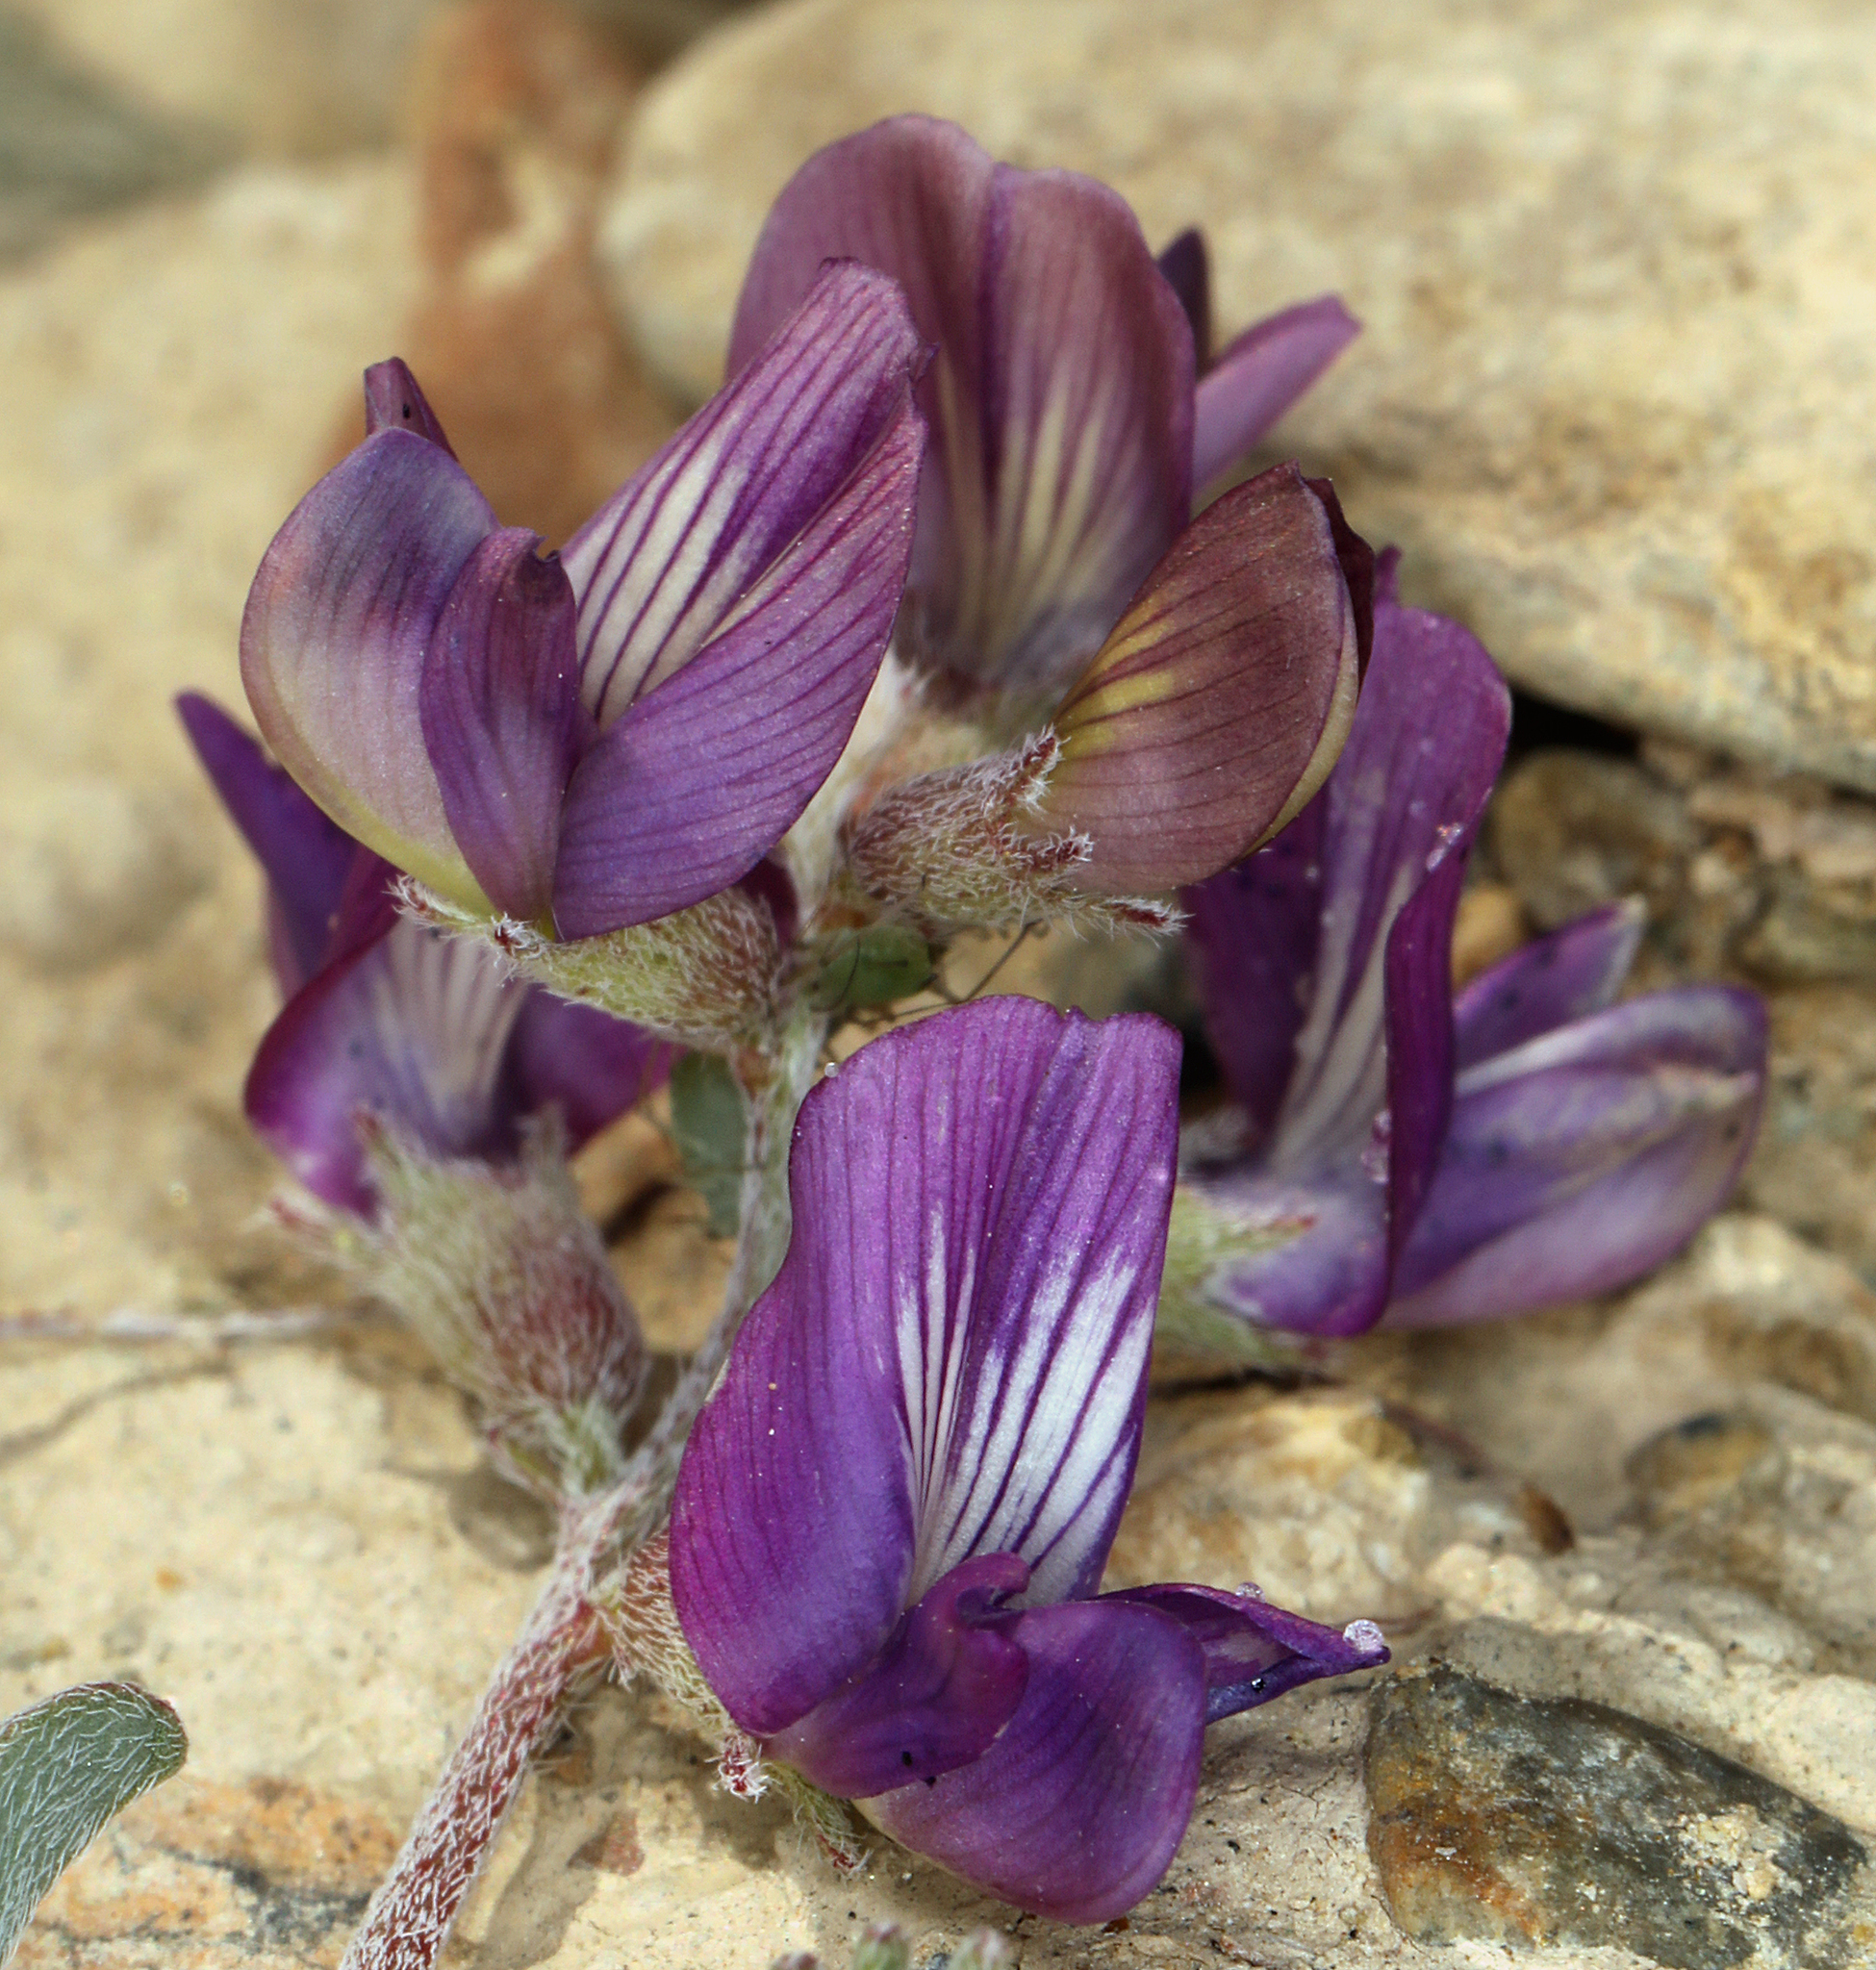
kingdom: Plantae
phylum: Tracheophyta
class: Magnoliopsida
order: Fabales
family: Fabaceae
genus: Astragalus
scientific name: Astragalus inyoensis
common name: Inyo locoweed
